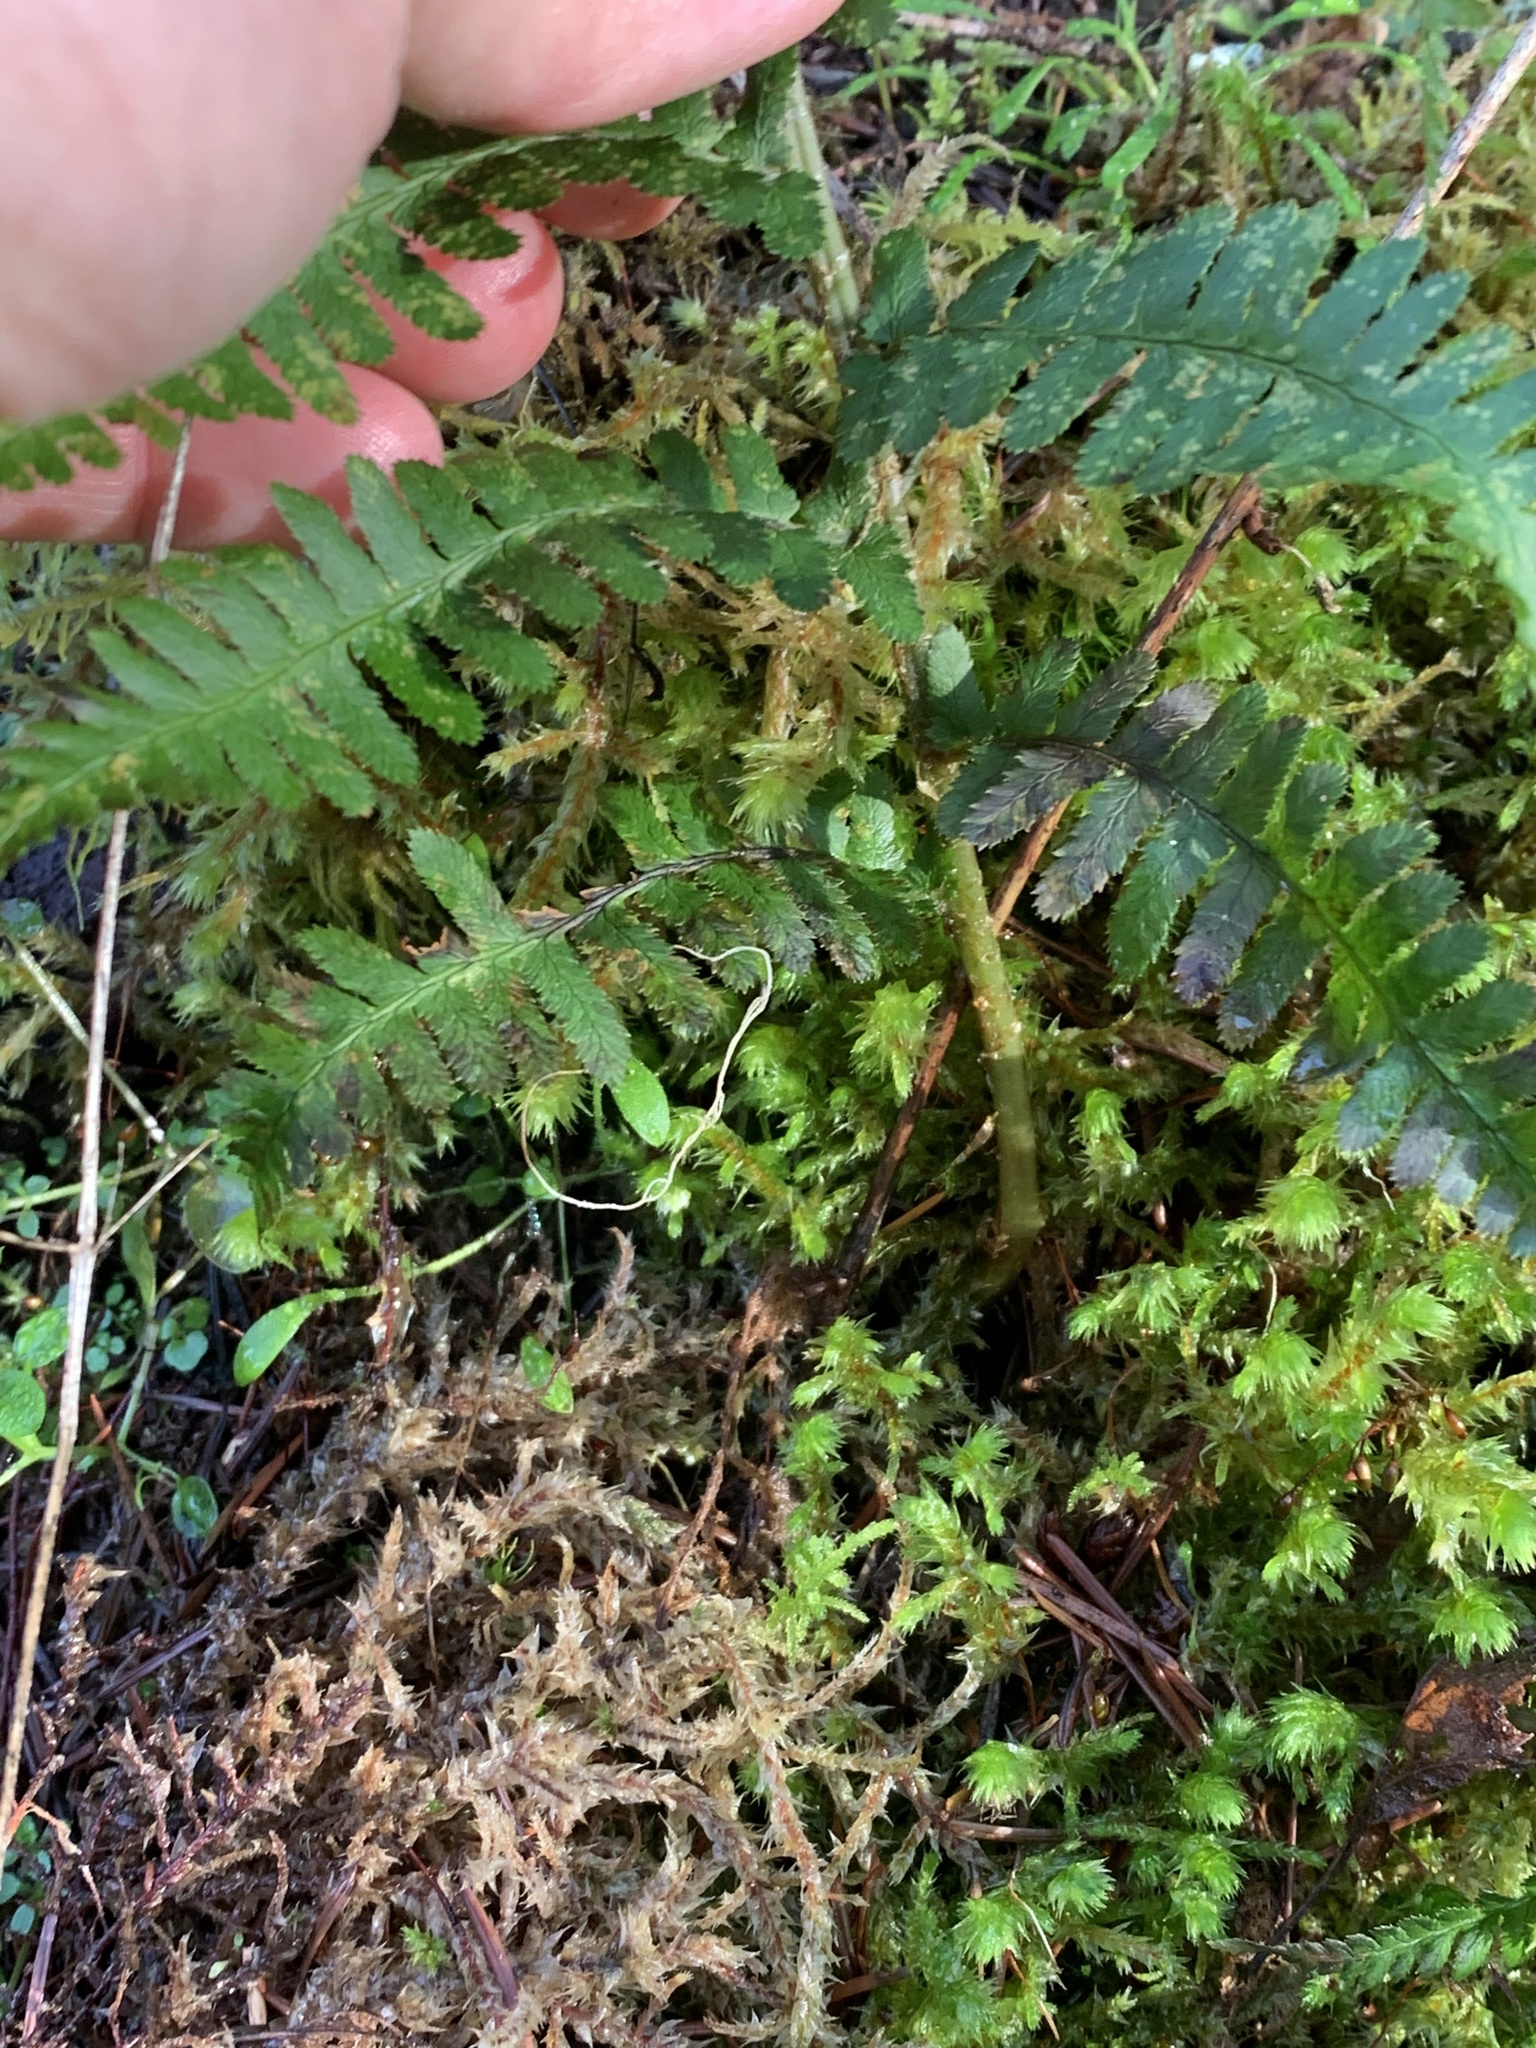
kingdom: Plantae
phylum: Tracheophyta
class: Polypodiopsida
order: Polypodiales
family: Dryopteridaceae
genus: Dryopteris
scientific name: Dryopteris arguta
